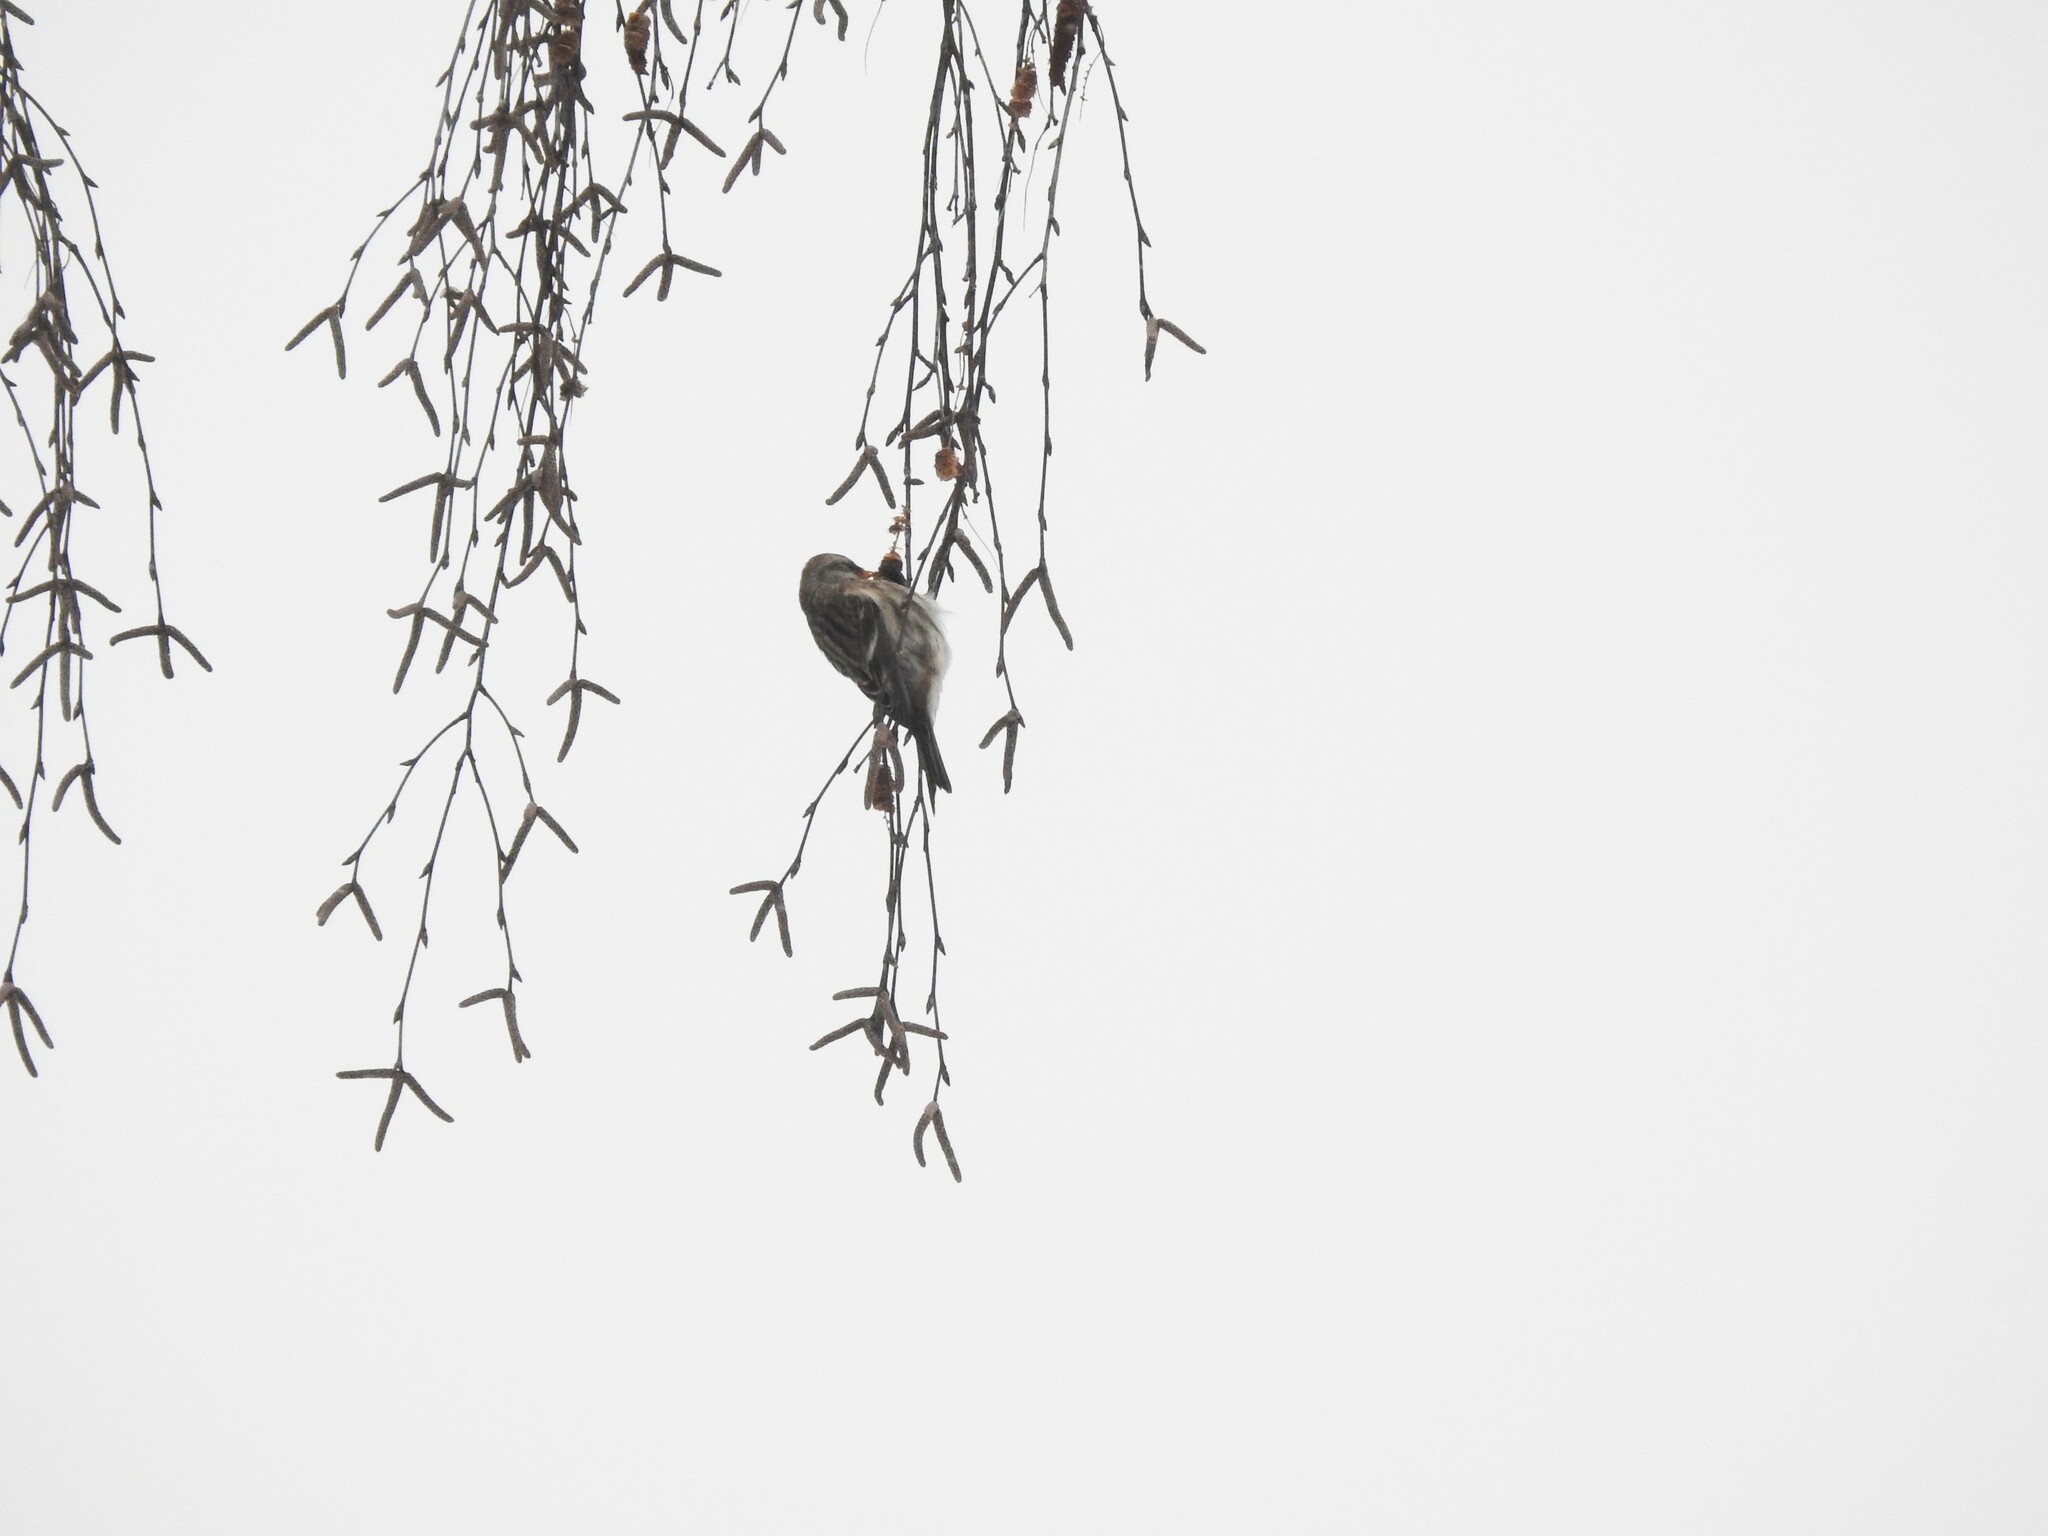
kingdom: Animalia
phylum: Chordata
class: Aves
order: Passeriformes
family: Fringillidae
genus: Acanthis
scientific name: Acanthis flammea
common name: Common redpoll
